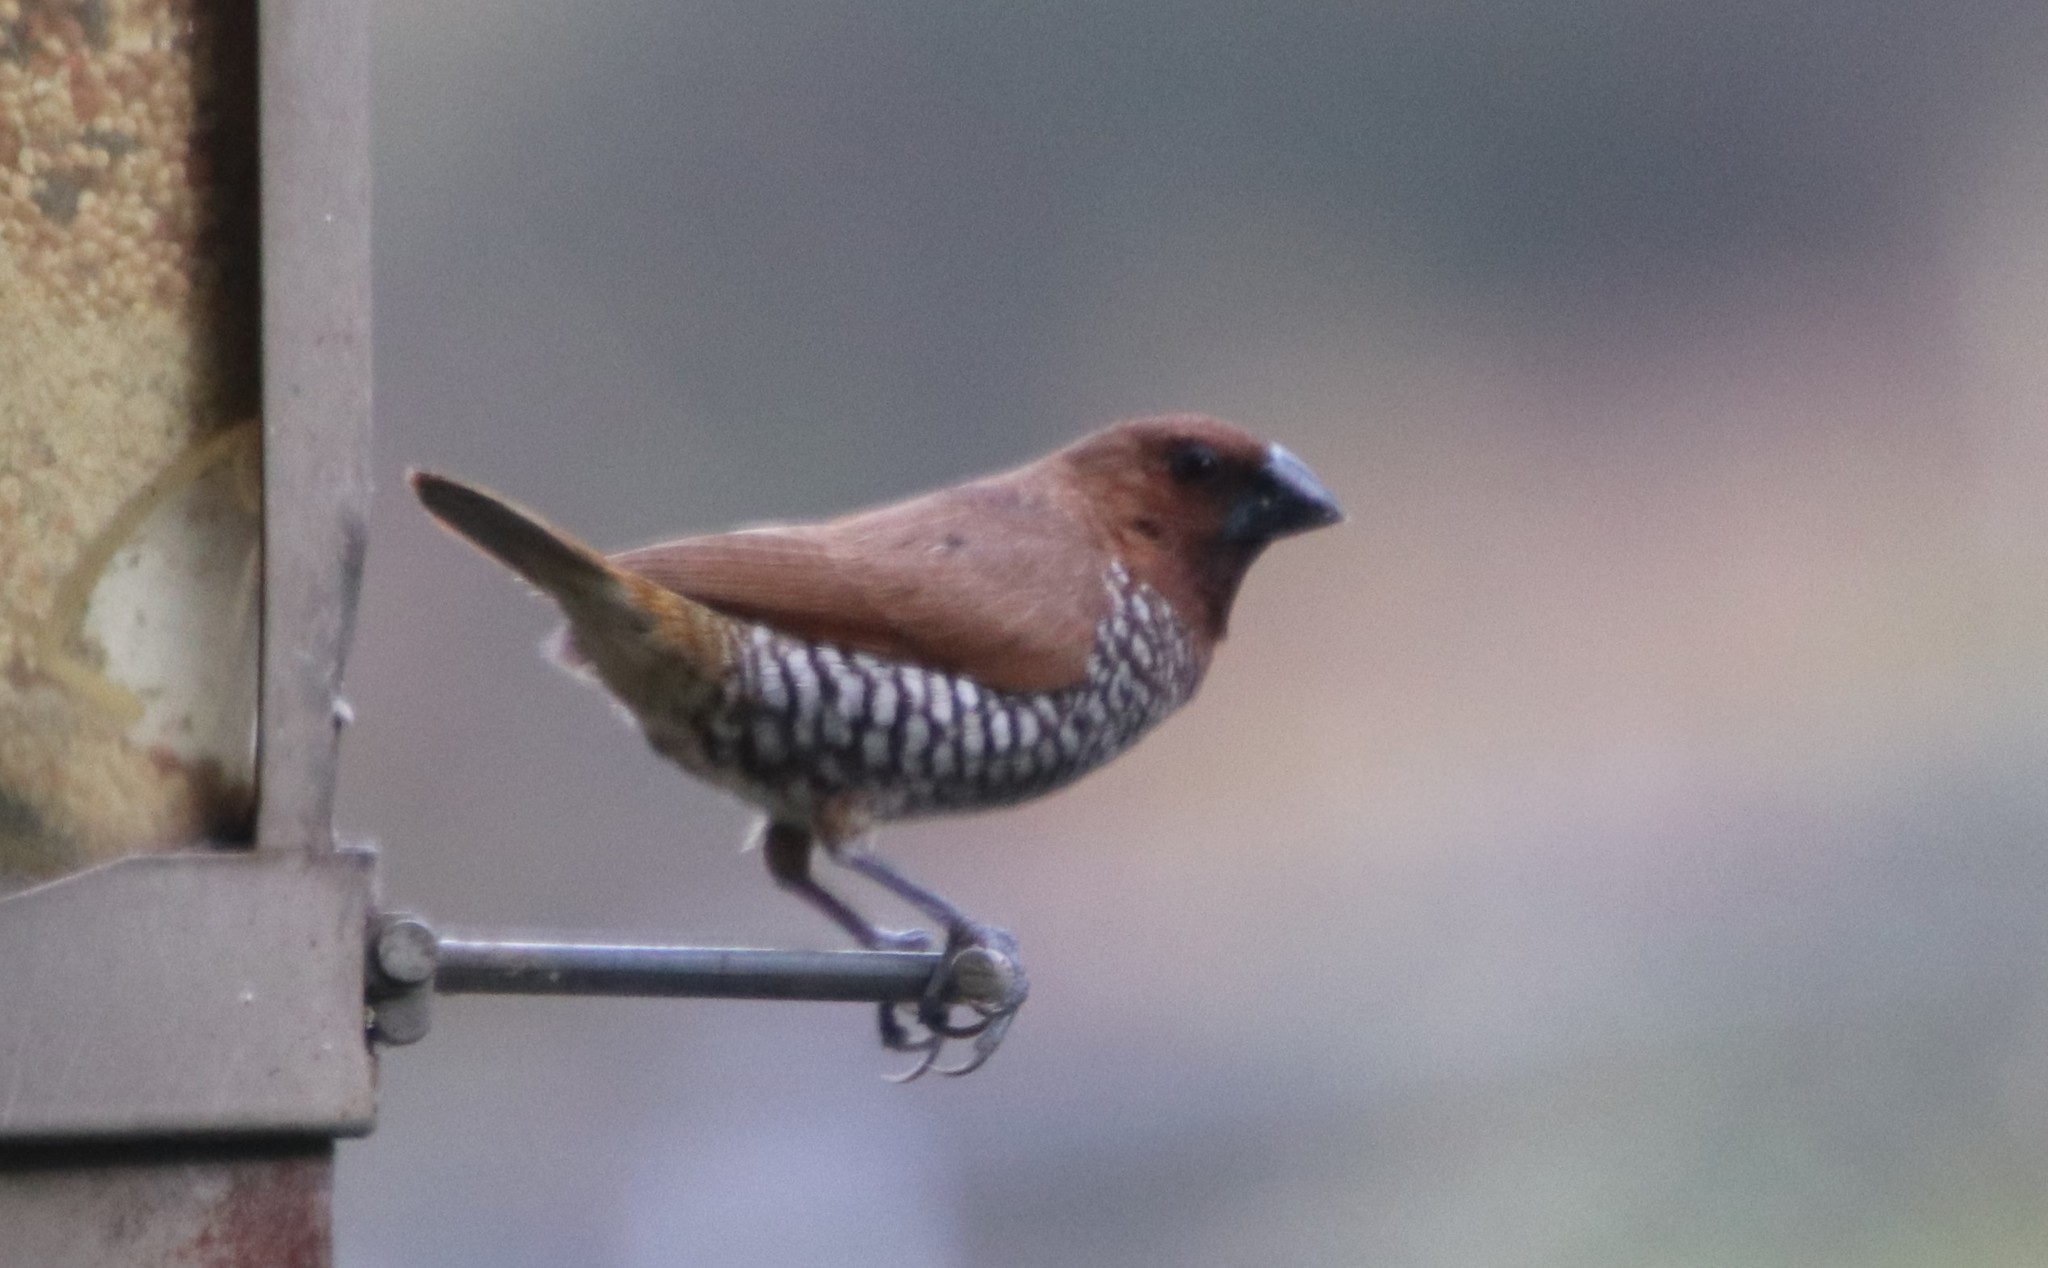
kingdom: Animalia
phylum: Chordata
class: Aves
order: Passeriformes
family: Estrildidae
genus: Lonchura
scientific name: Lonchura punctulata
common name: Scaly-breasted munia
